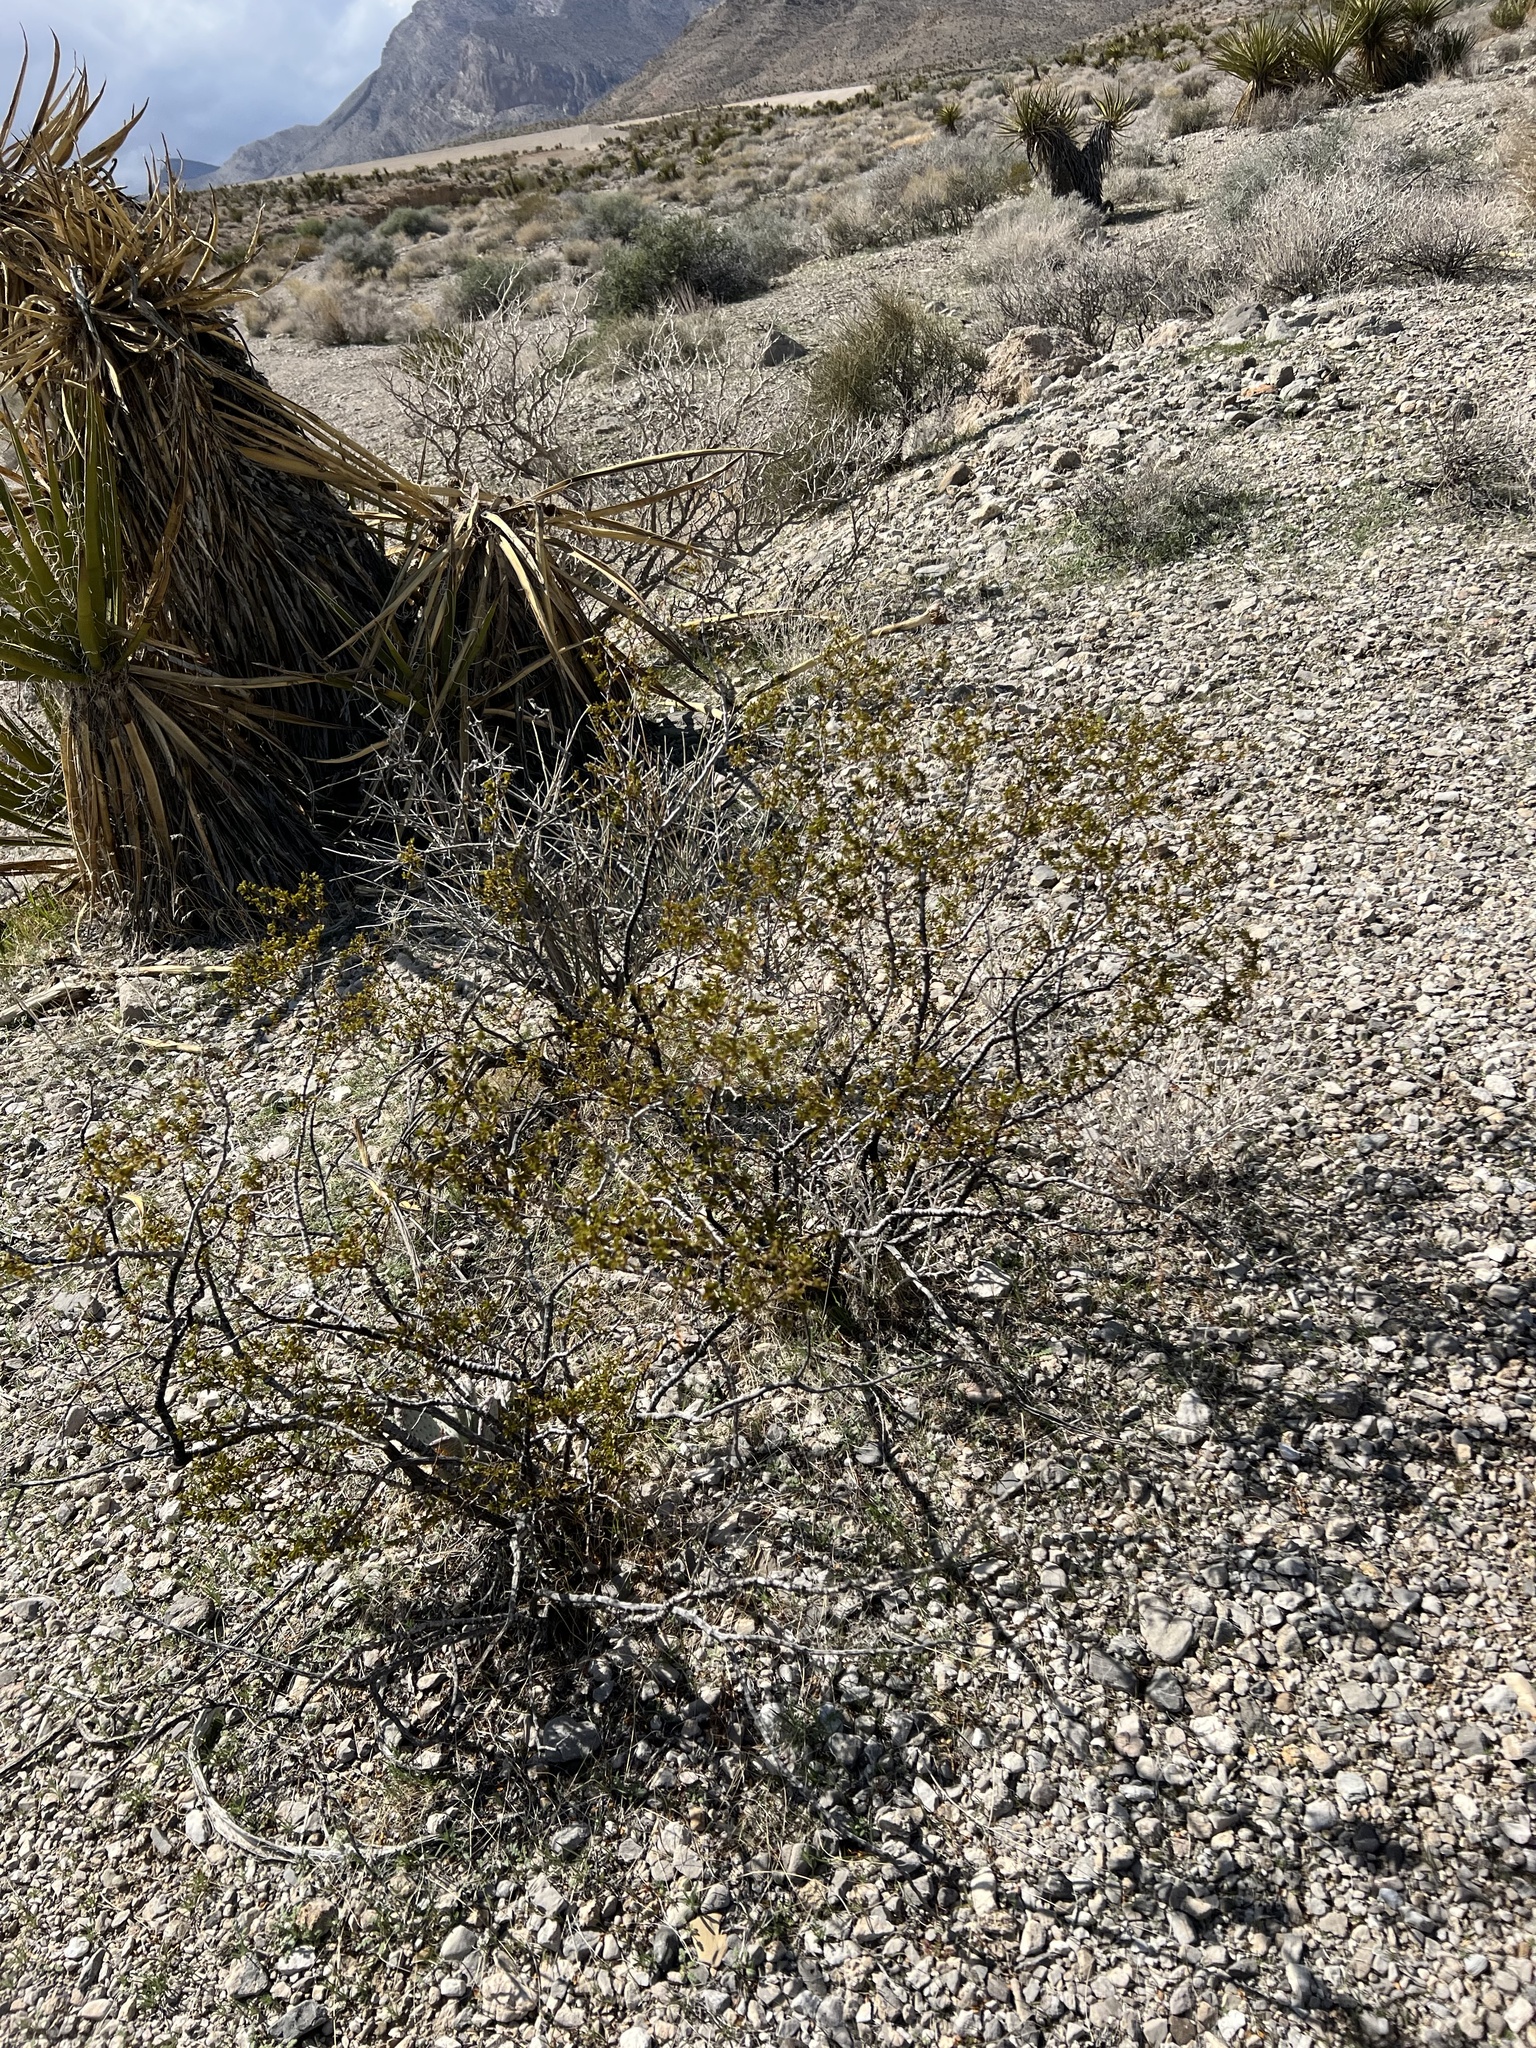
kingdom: Plantae
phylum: Tracheophyta
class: Magnoliopsida
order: Zygophyllales
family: Zygophyllaceae
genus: Larrea
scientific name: Larrea tridentata
